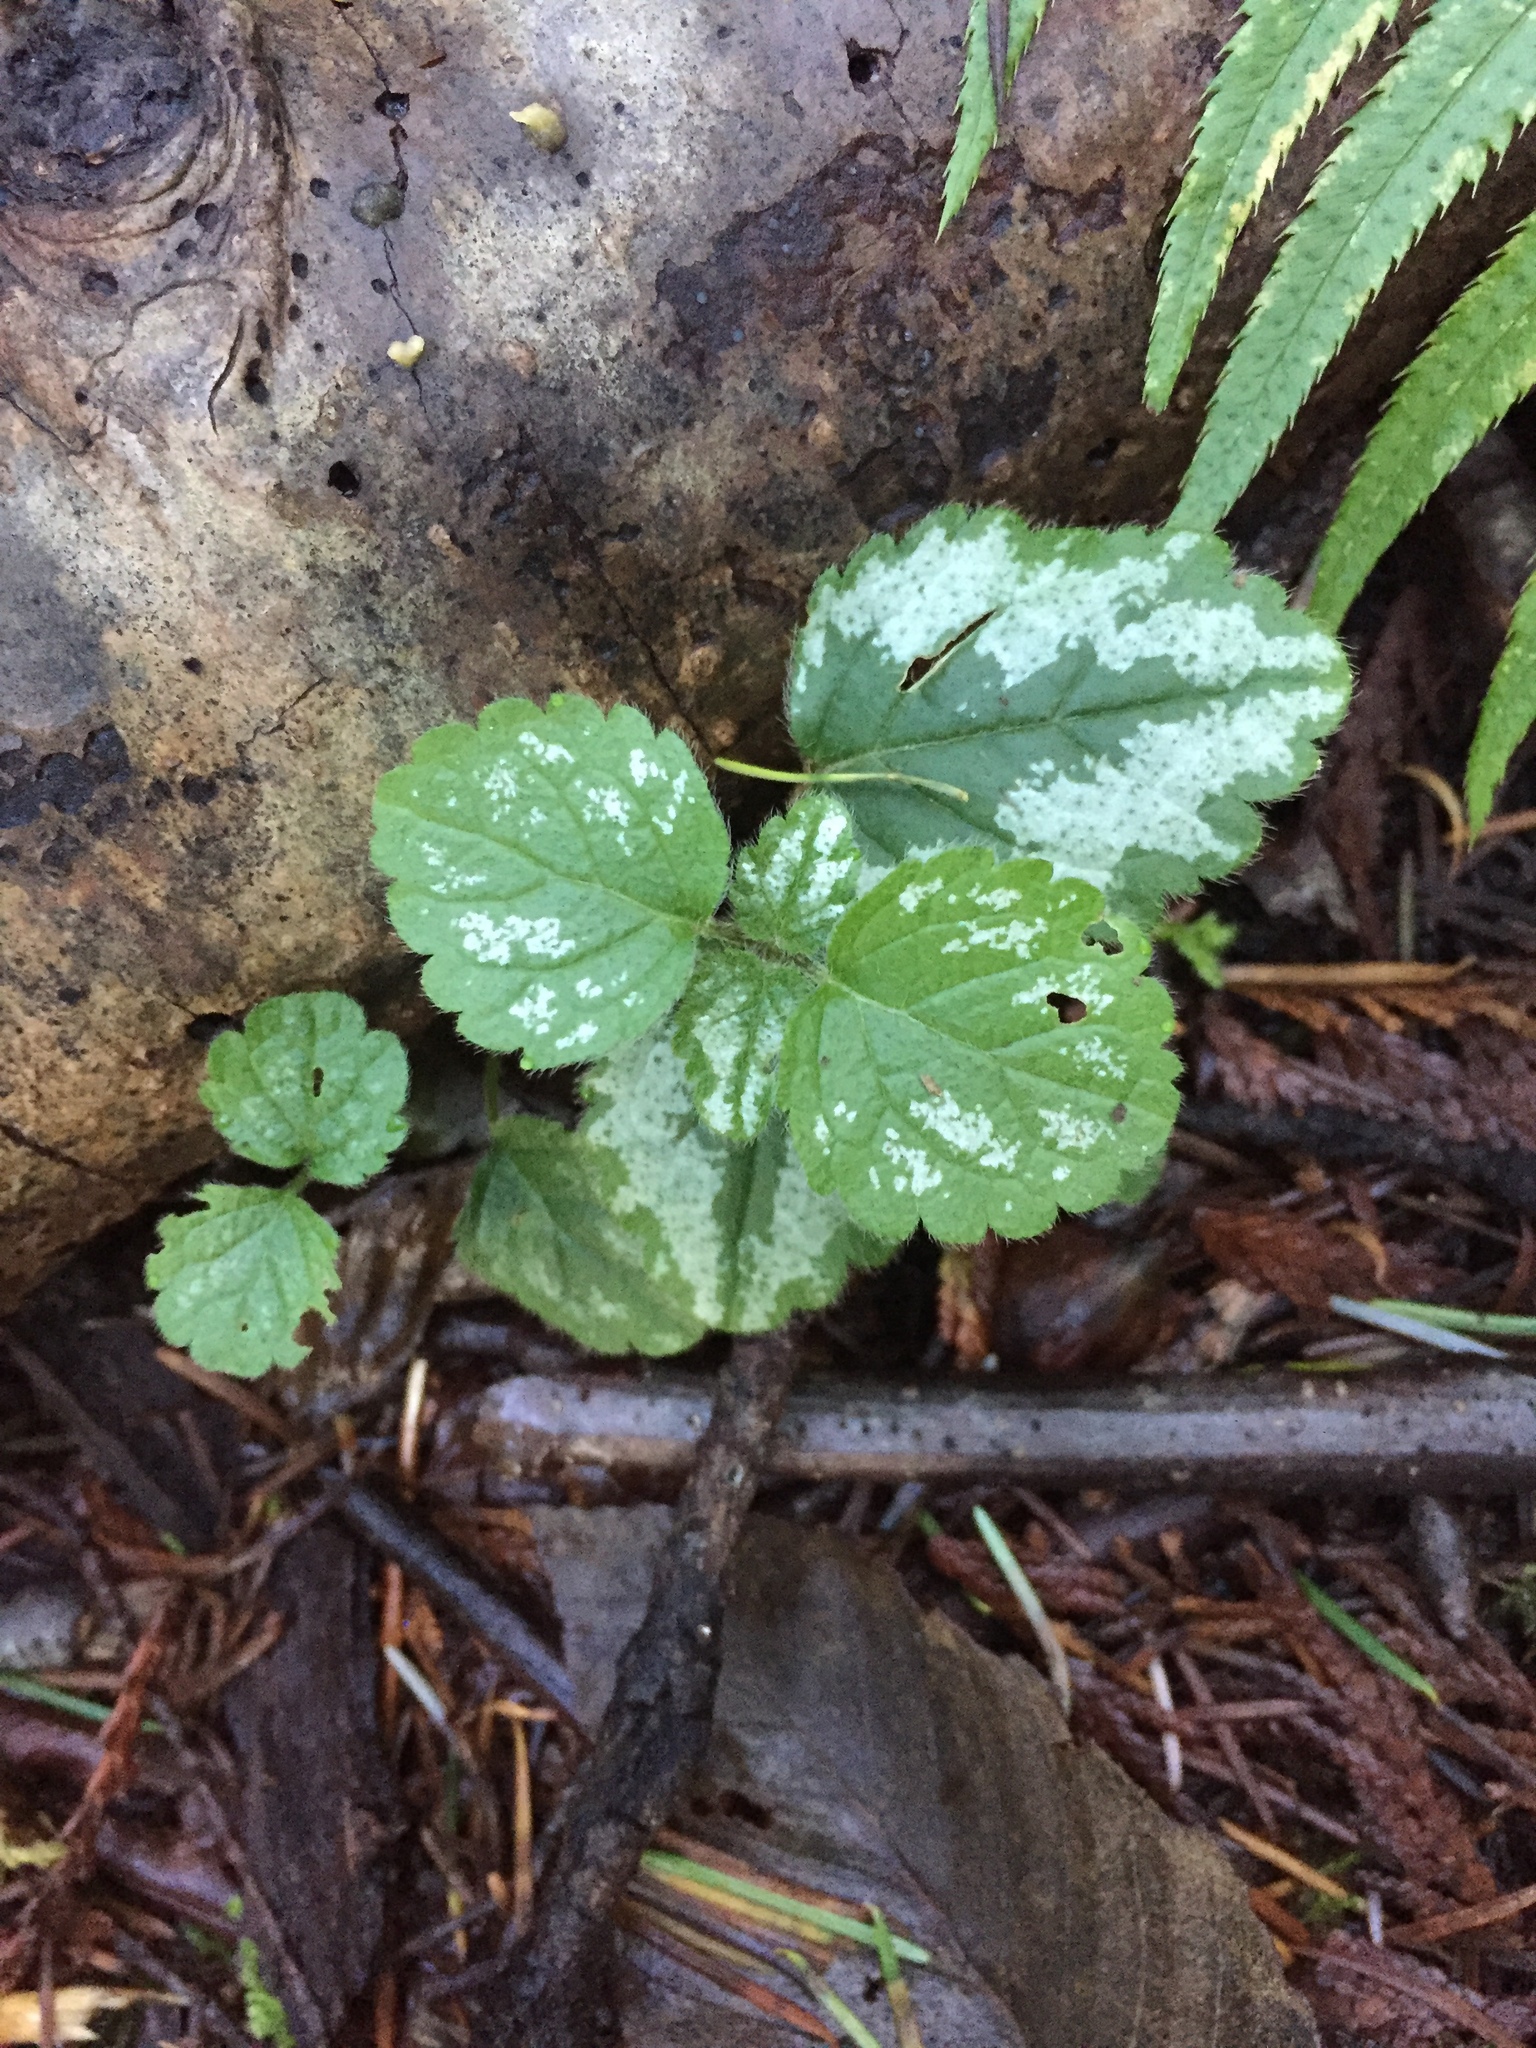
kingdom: Plantae
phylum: Tracheophyta
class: Magnoliopsida
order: Lamiales
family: Lamiaceae
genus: Lamium
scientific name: Lamium galeobdolon
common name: Yellow archangel
